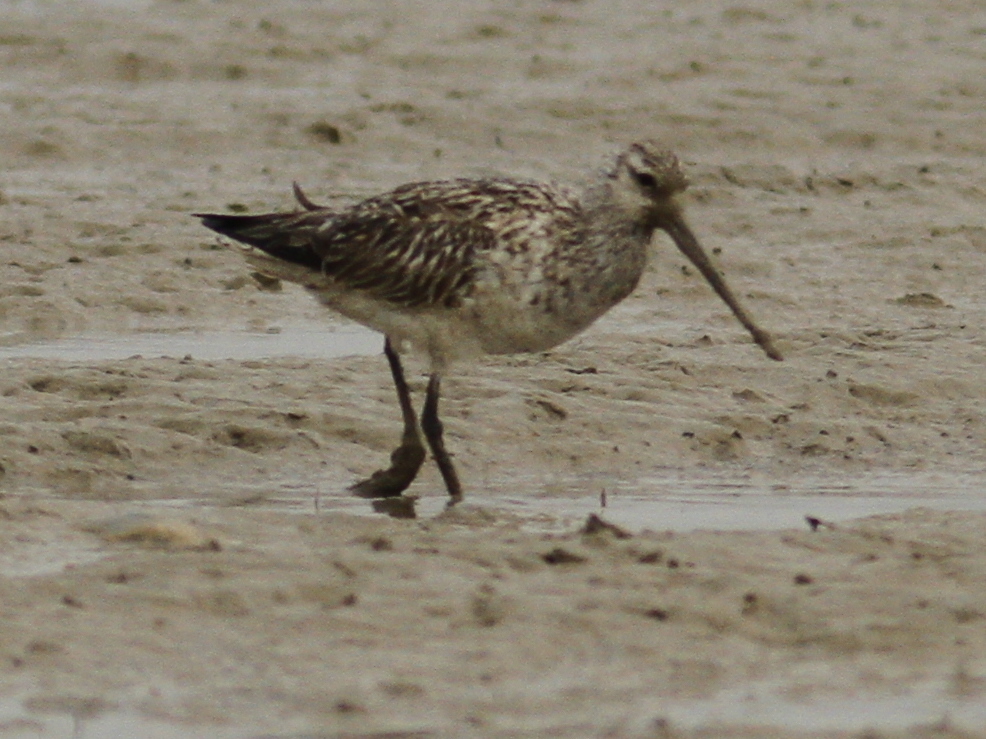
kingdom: Animalia
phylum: Chordata
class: Aves
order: Charadriiformes
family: Scolopacidae
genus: Limosa
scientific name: Limosa lapponica
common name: Bar-tailed godwit
